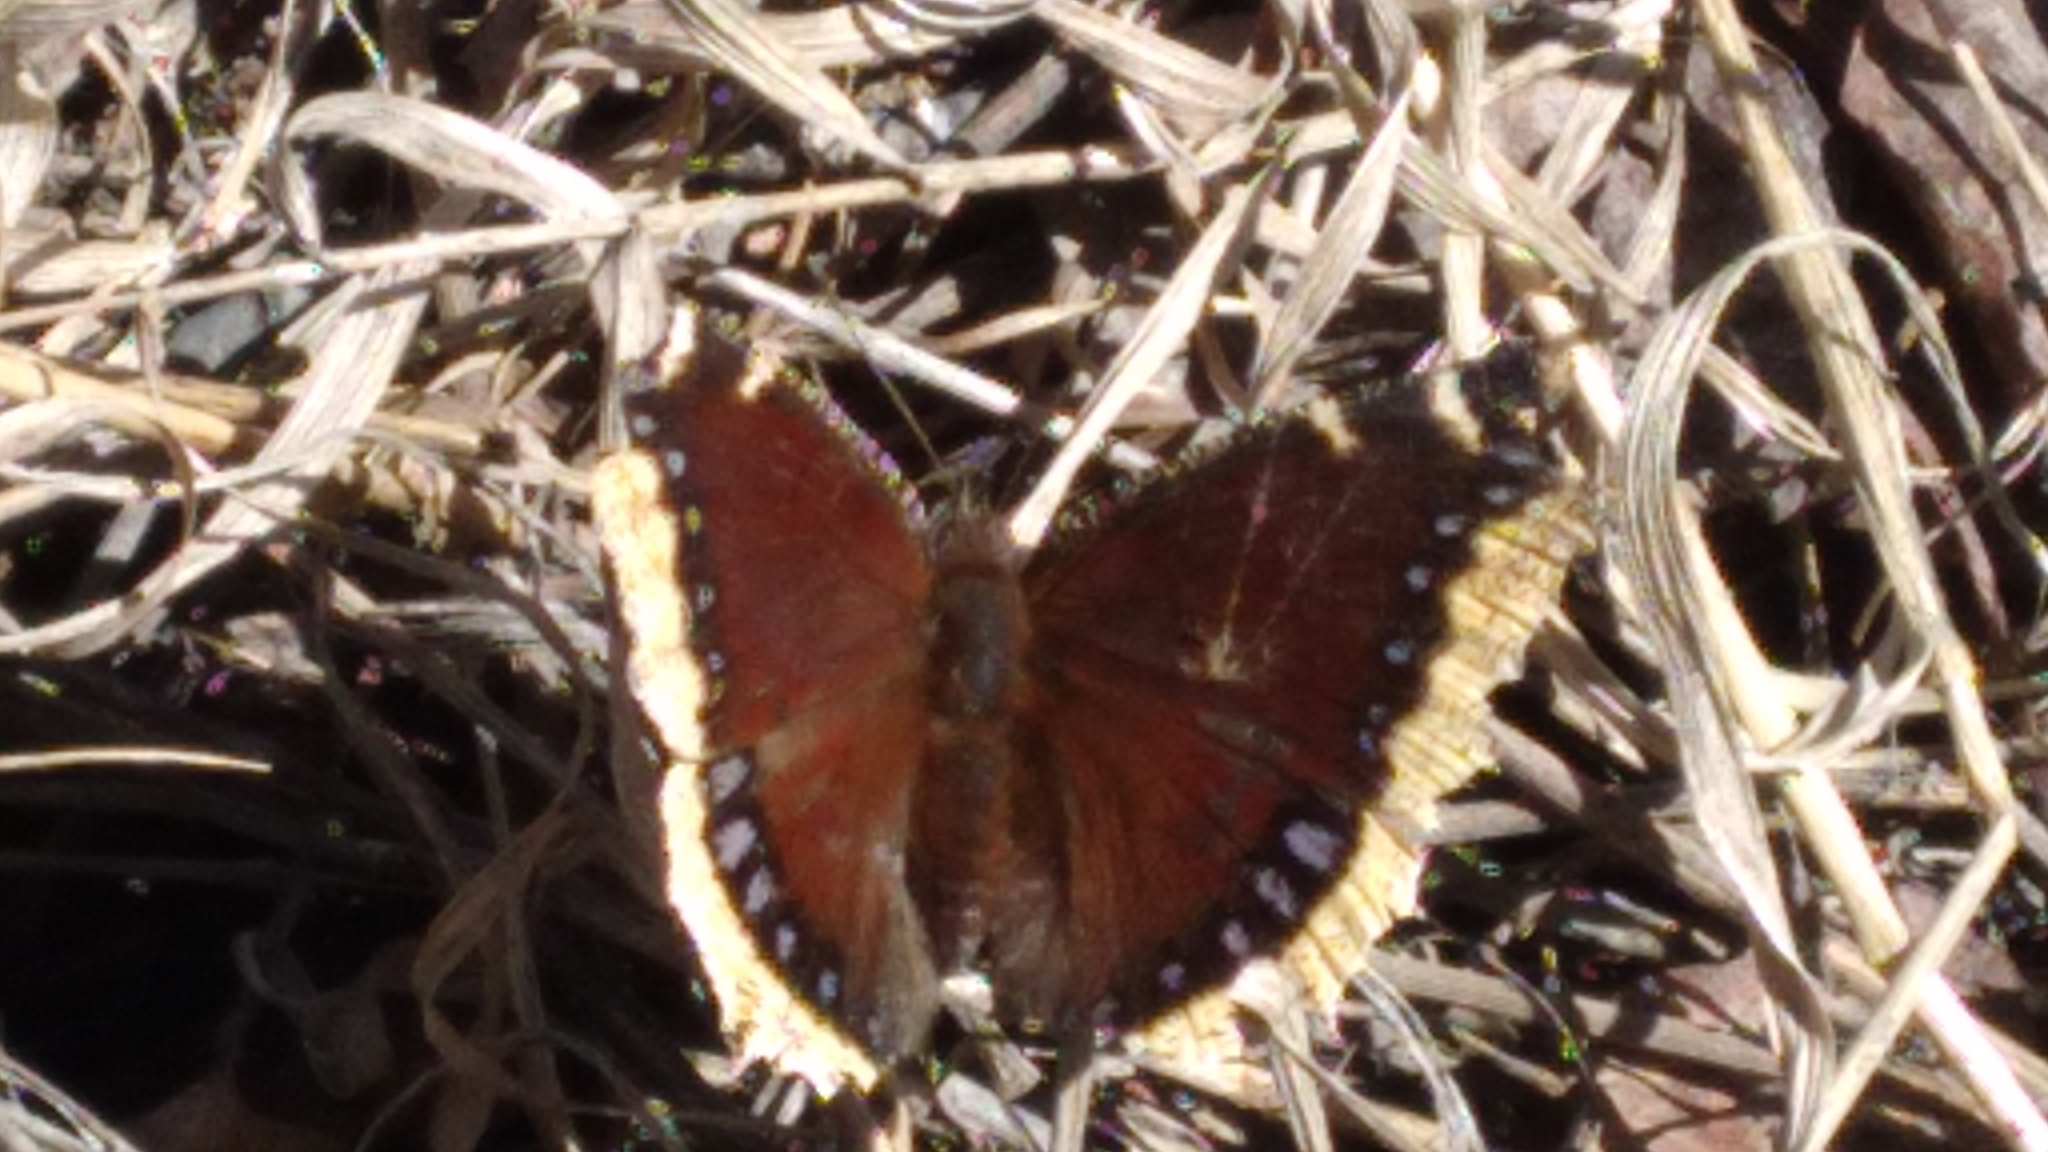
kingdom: Animalia
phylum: Arthropoda
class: Insecta
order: Lepidoptera
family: Nymphalidae
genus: Nymphalis
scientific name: Nymphalis antiopa
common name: Camberwell beauty
